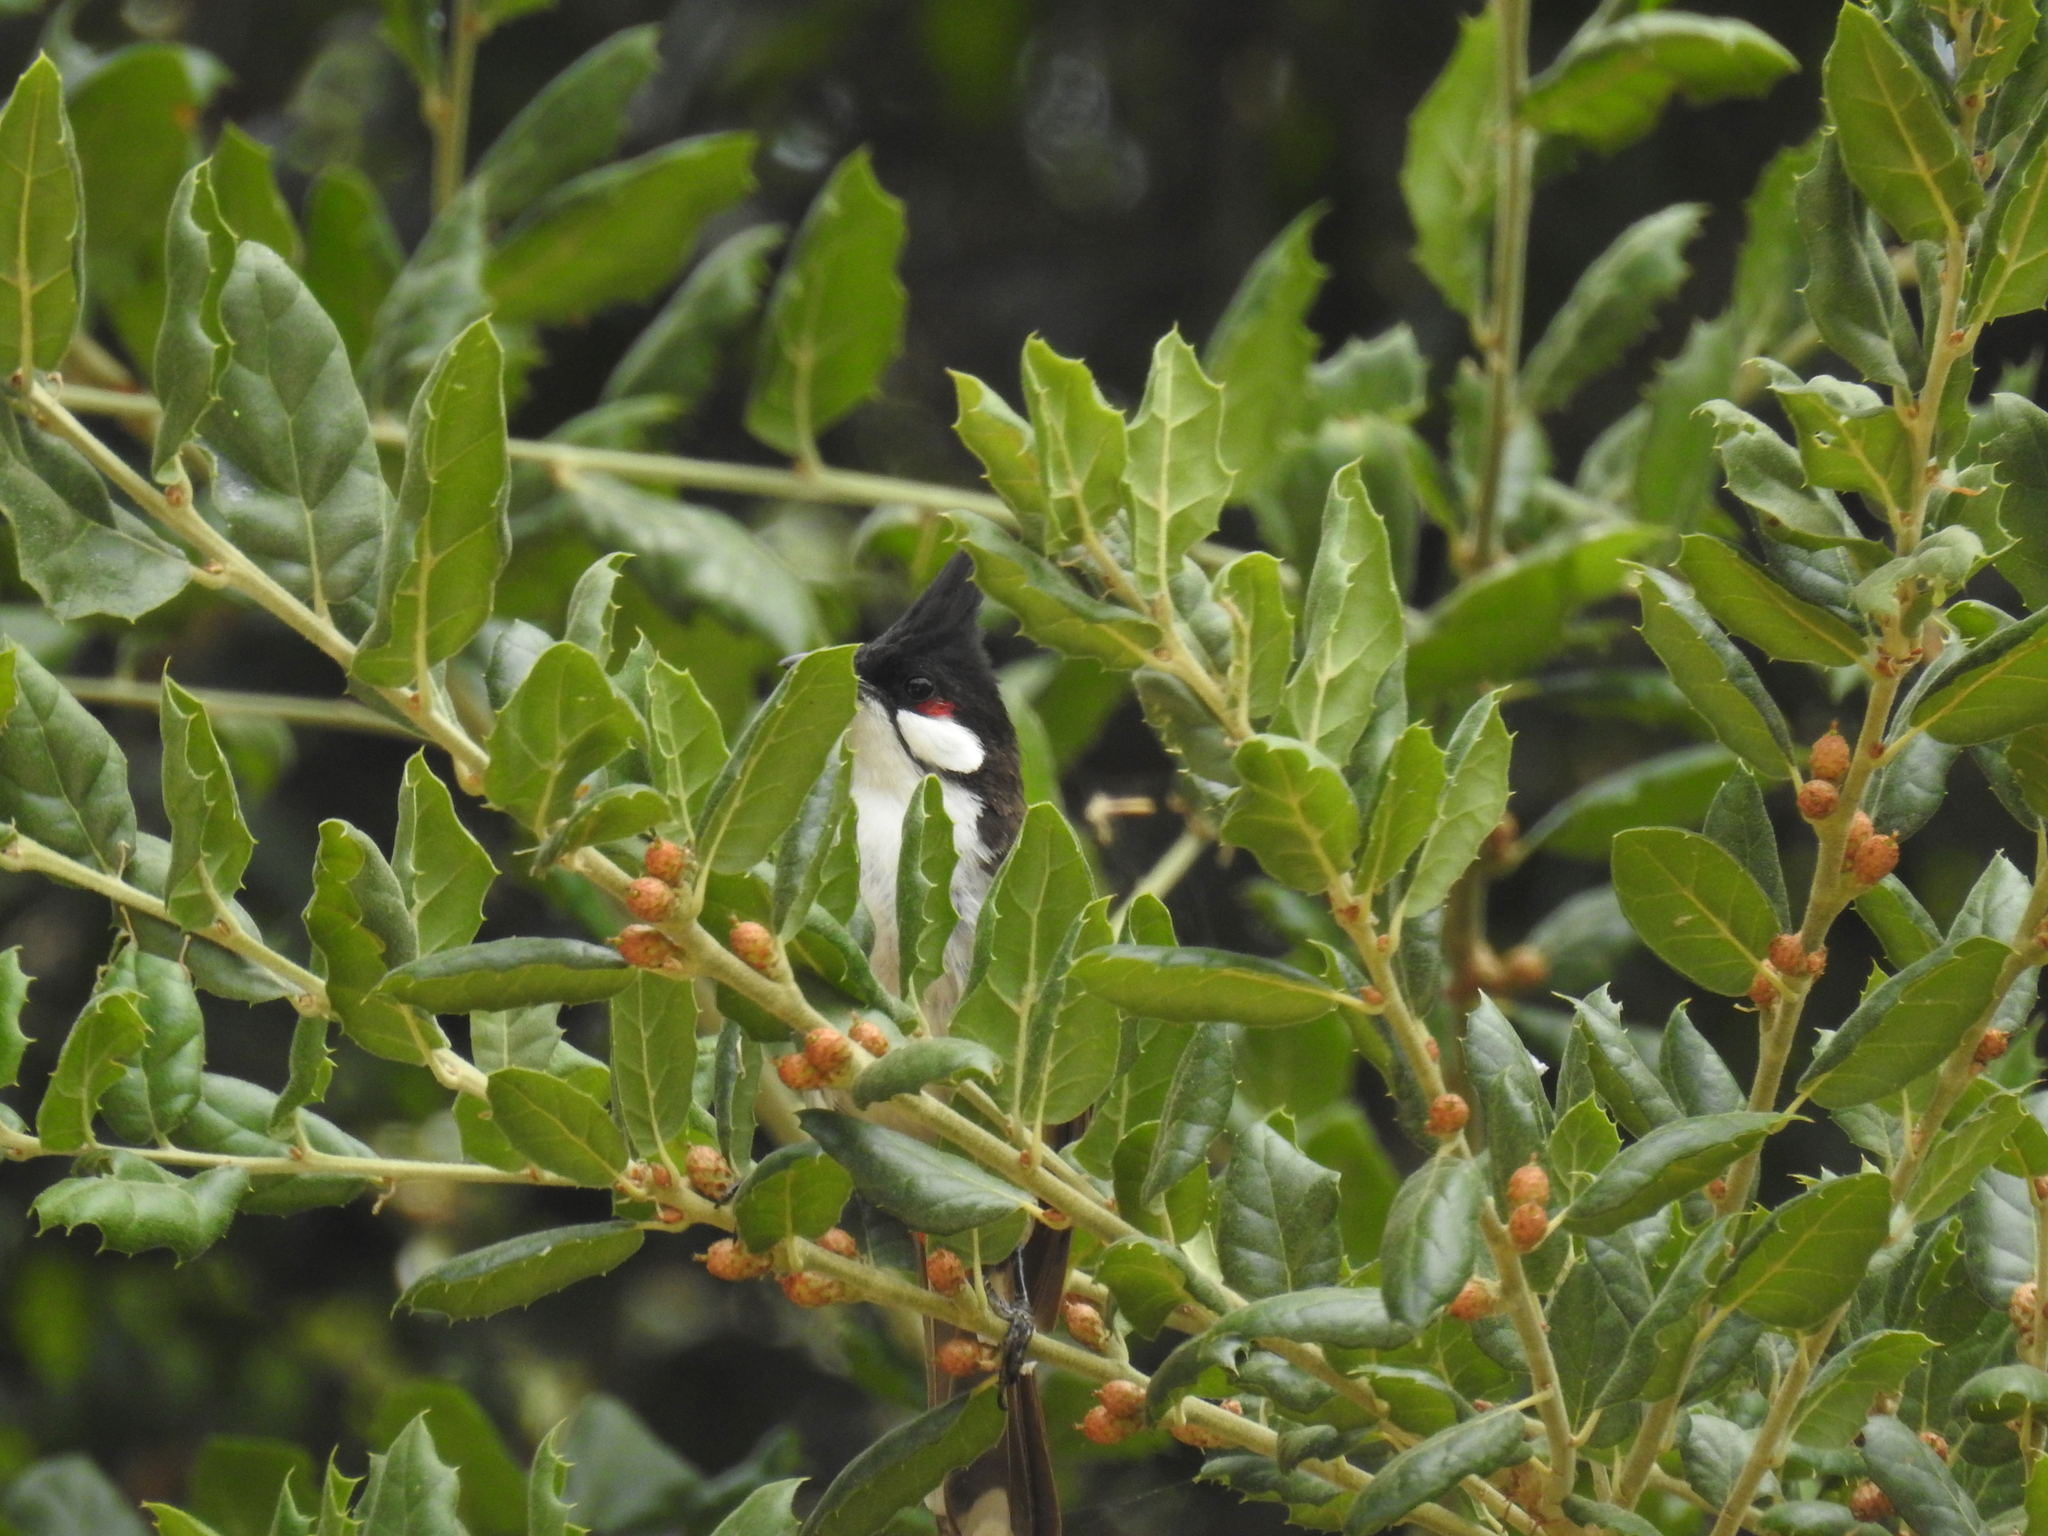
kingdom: Animalia
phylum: Chordata
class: Aves
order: Passeriformes
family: Pycnonotidae
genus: Pycnonotus
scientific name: Pycnonotus jocosus
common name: Red-whiskered bulbul
